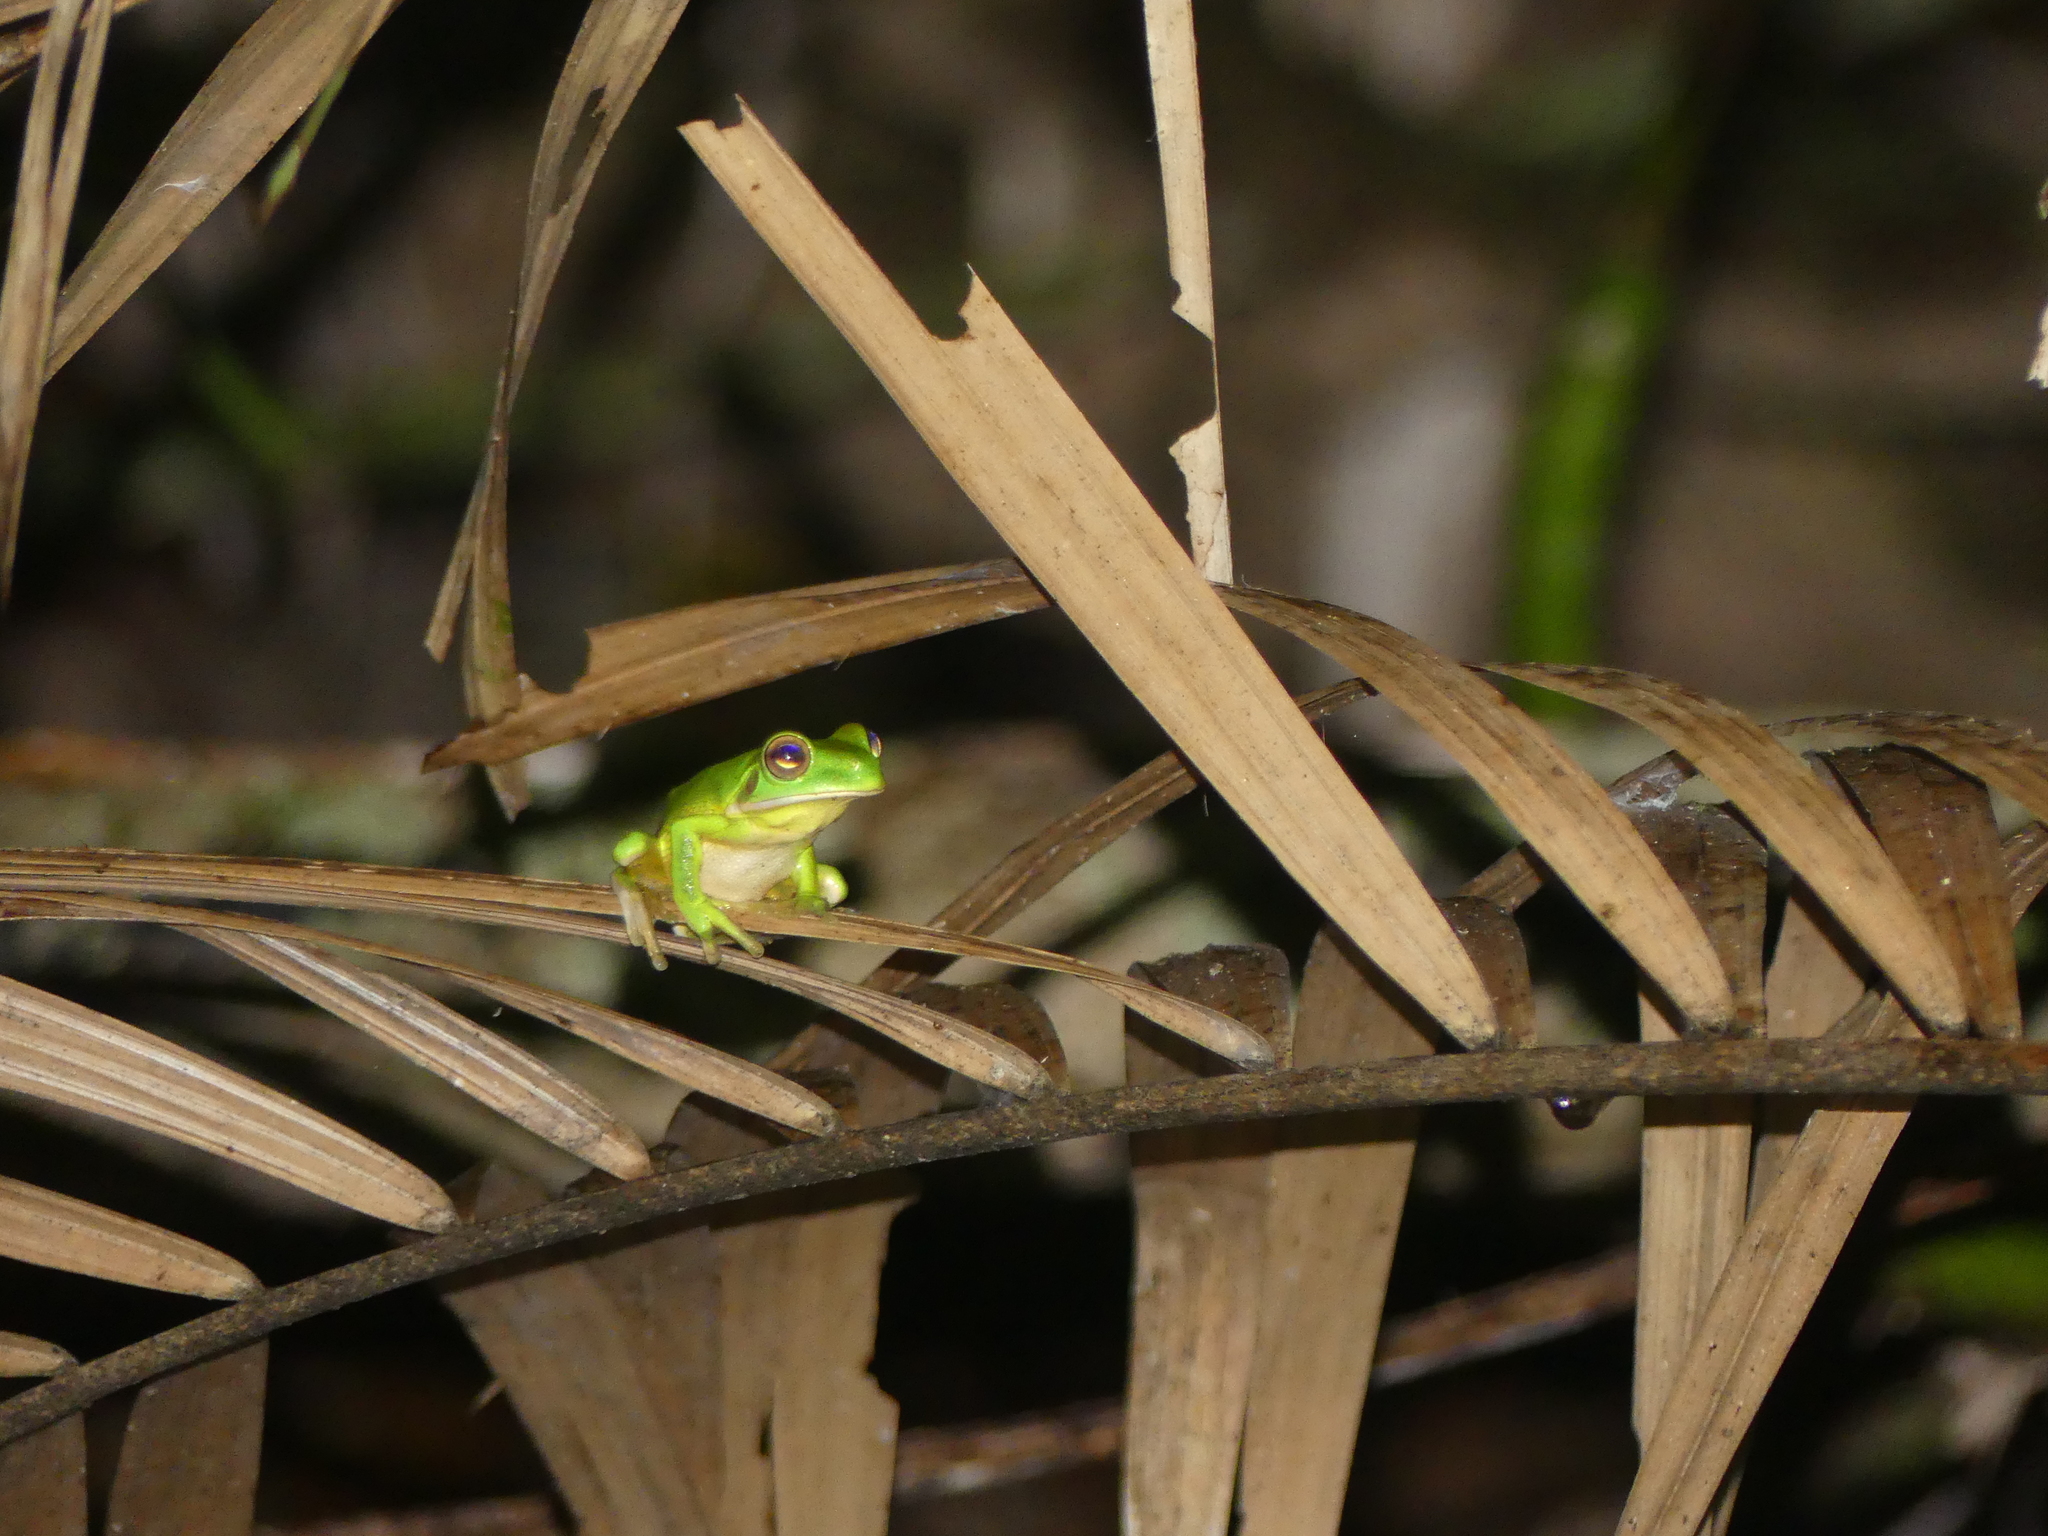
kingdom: Animalia
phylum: Chordata
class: Amphibia
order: Anura
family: Pelodryadidae
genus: Nyctimystes
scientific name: Nyctimystes infrafrenatus
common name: Australian giant treefrog
